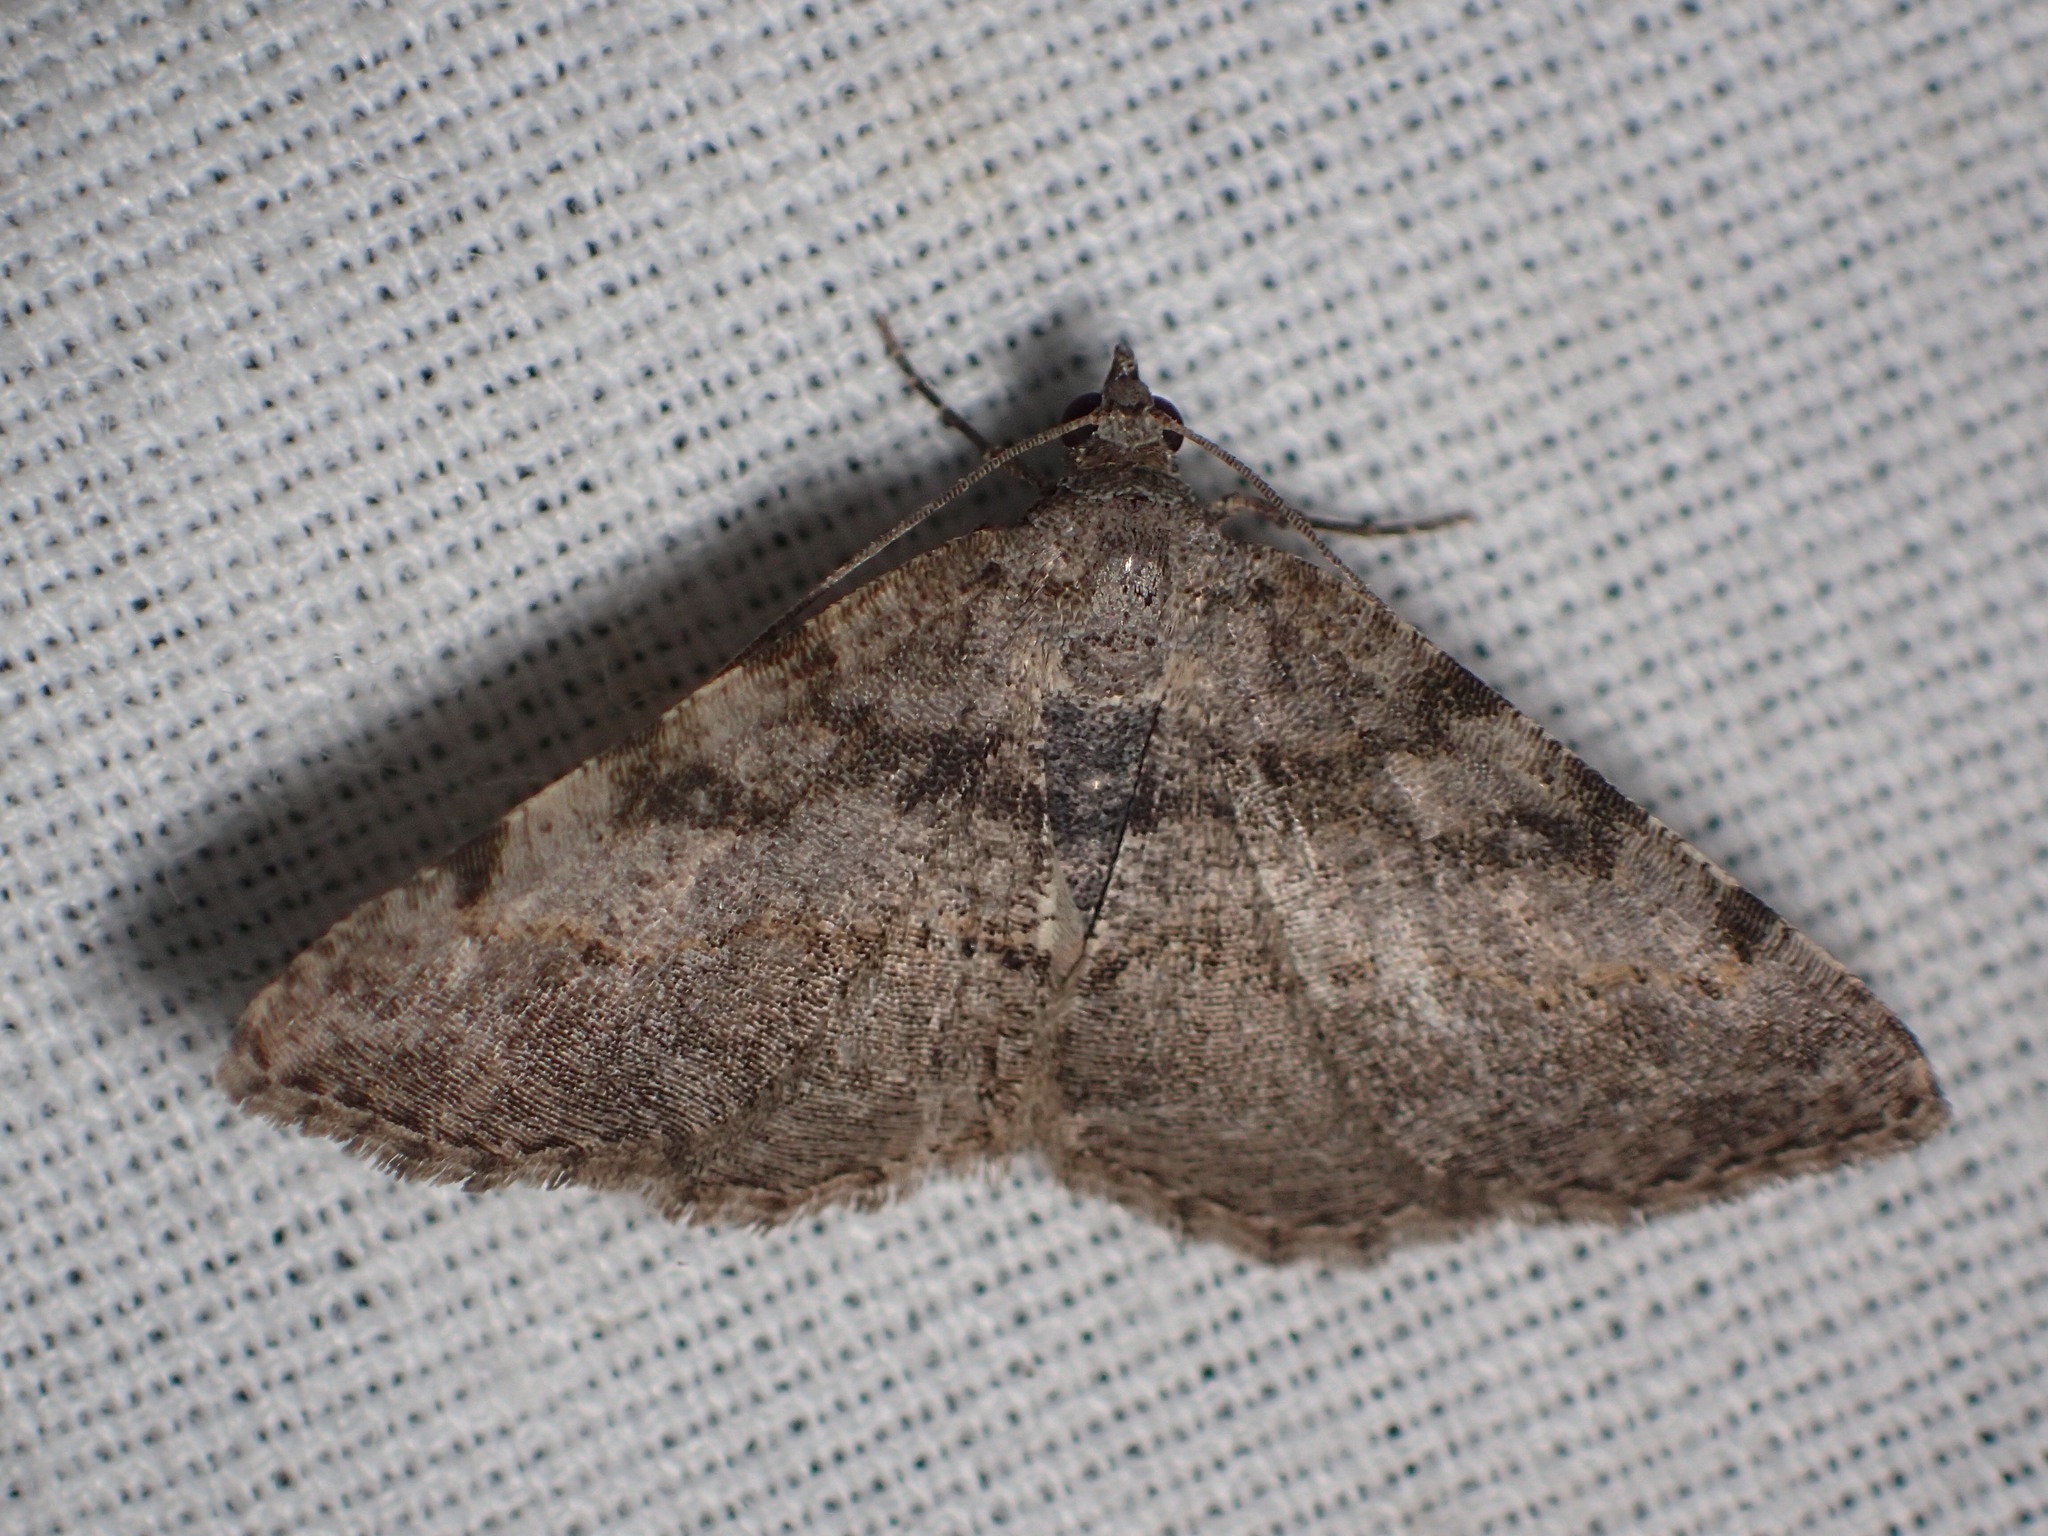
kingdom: Animalia
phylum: Arthropoda
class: Insecta
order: Lepidoptera
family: Geometridae
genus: Digrammia
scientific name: Digrammia gnophosaria
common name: Hollow-spotted angle
